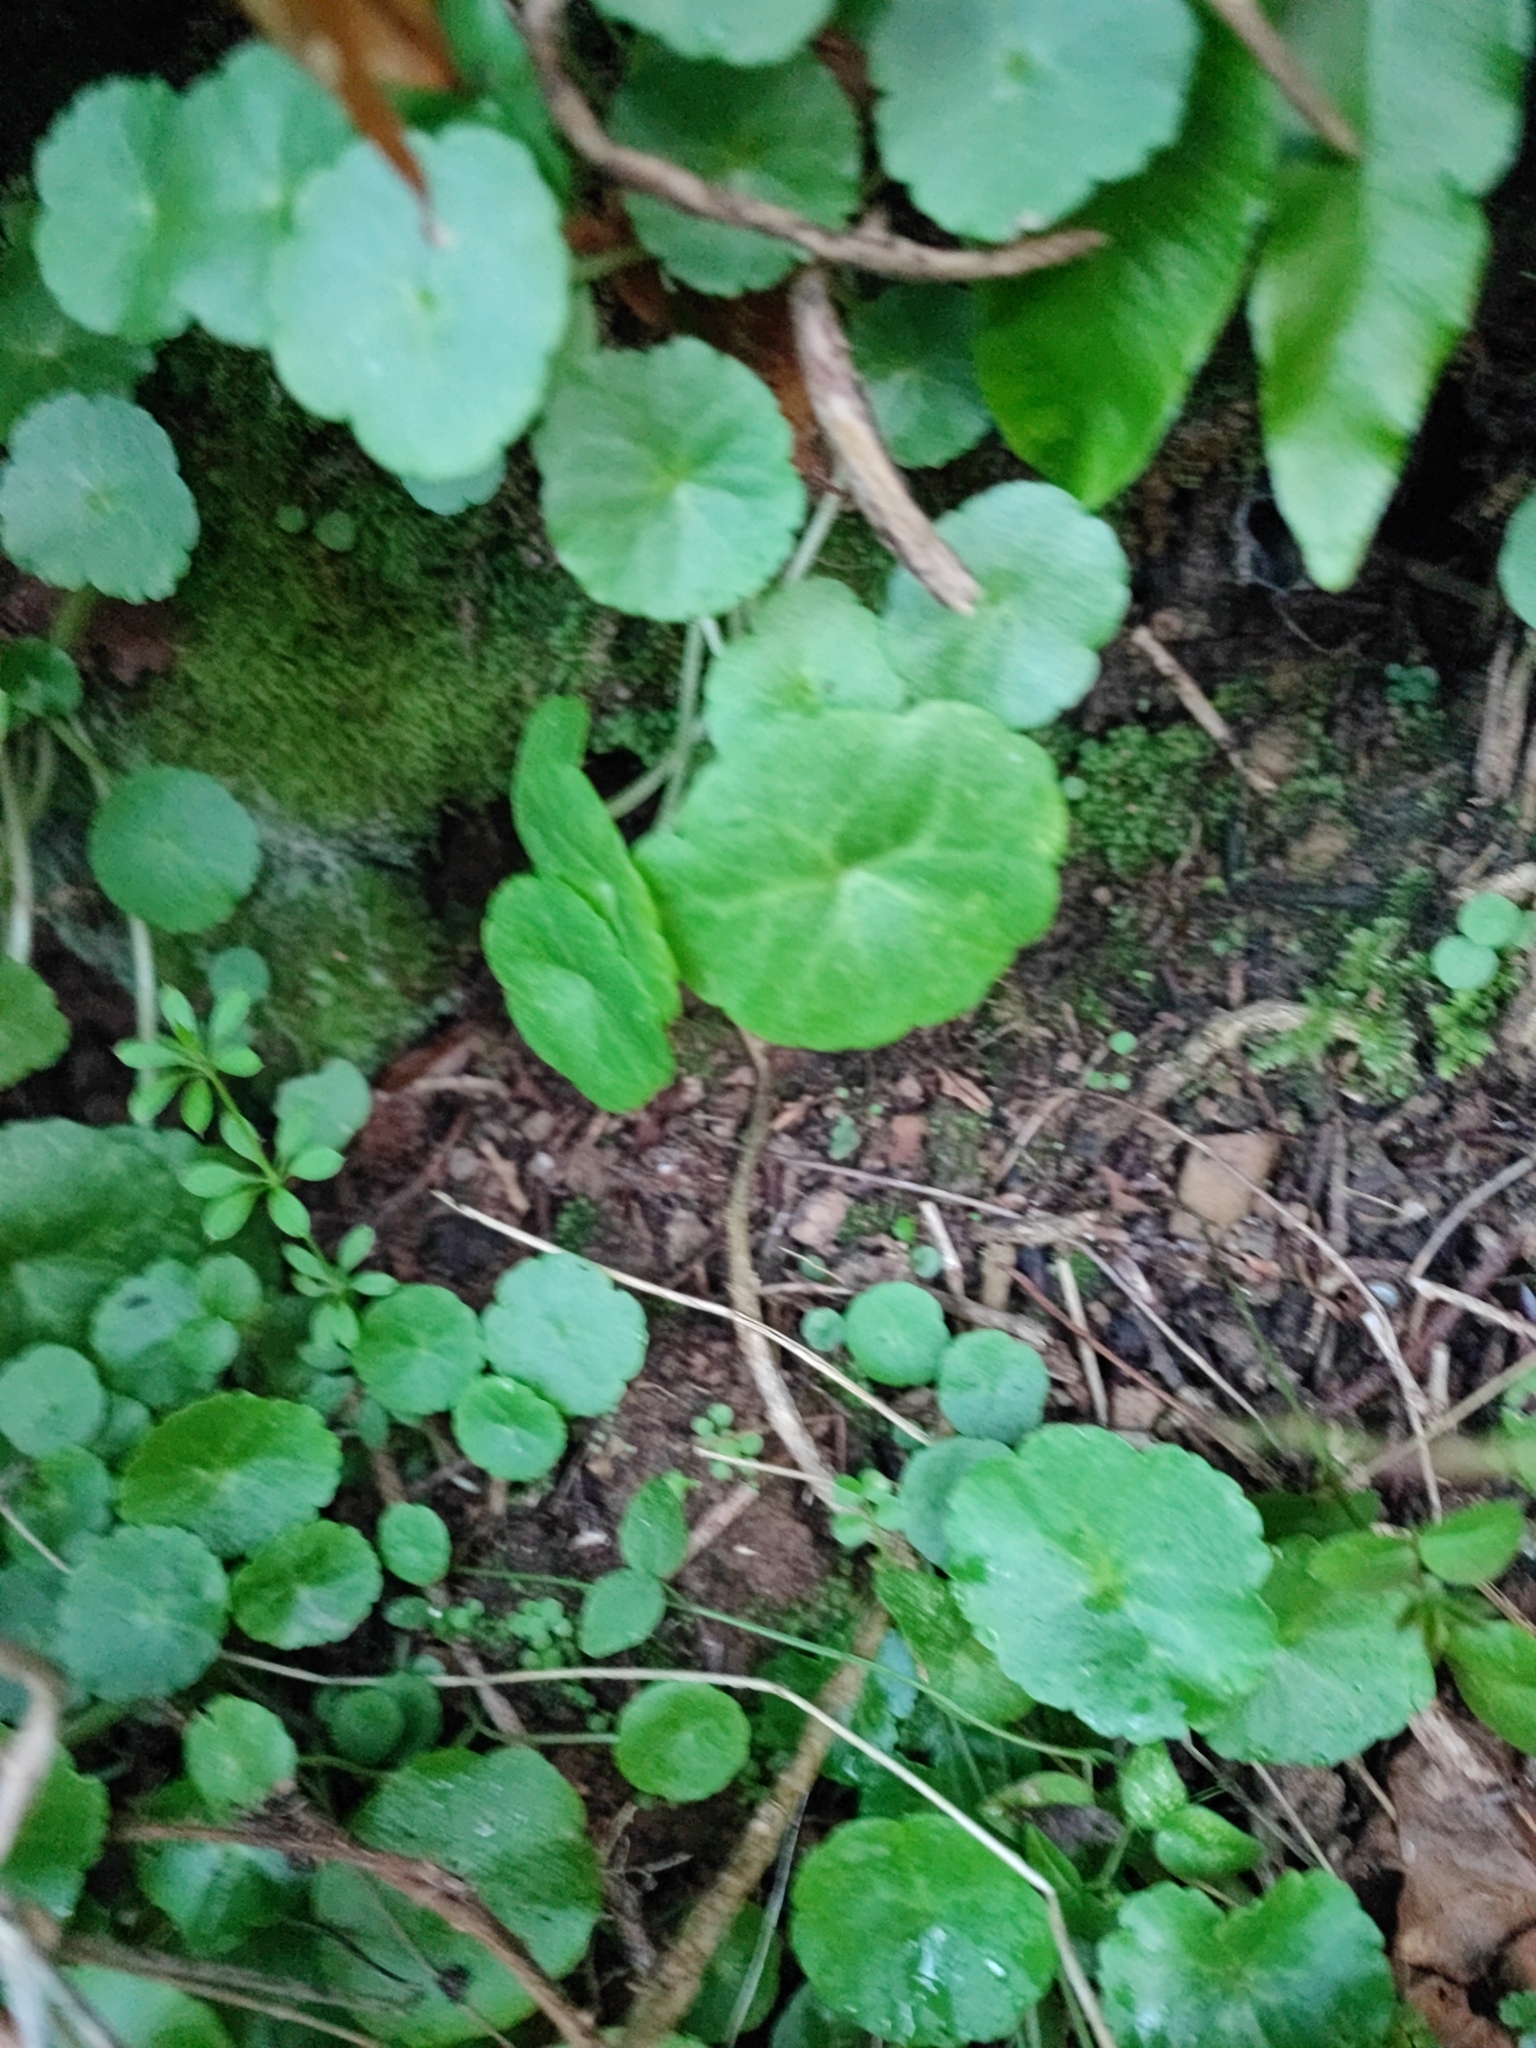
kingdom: Plantae
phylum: Tracheophyta
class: Magnoliopsida
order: Saxifragales
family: Crassulaceae
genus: Umbilicus
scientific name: Umbilicus rupestris
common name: Navelwort
